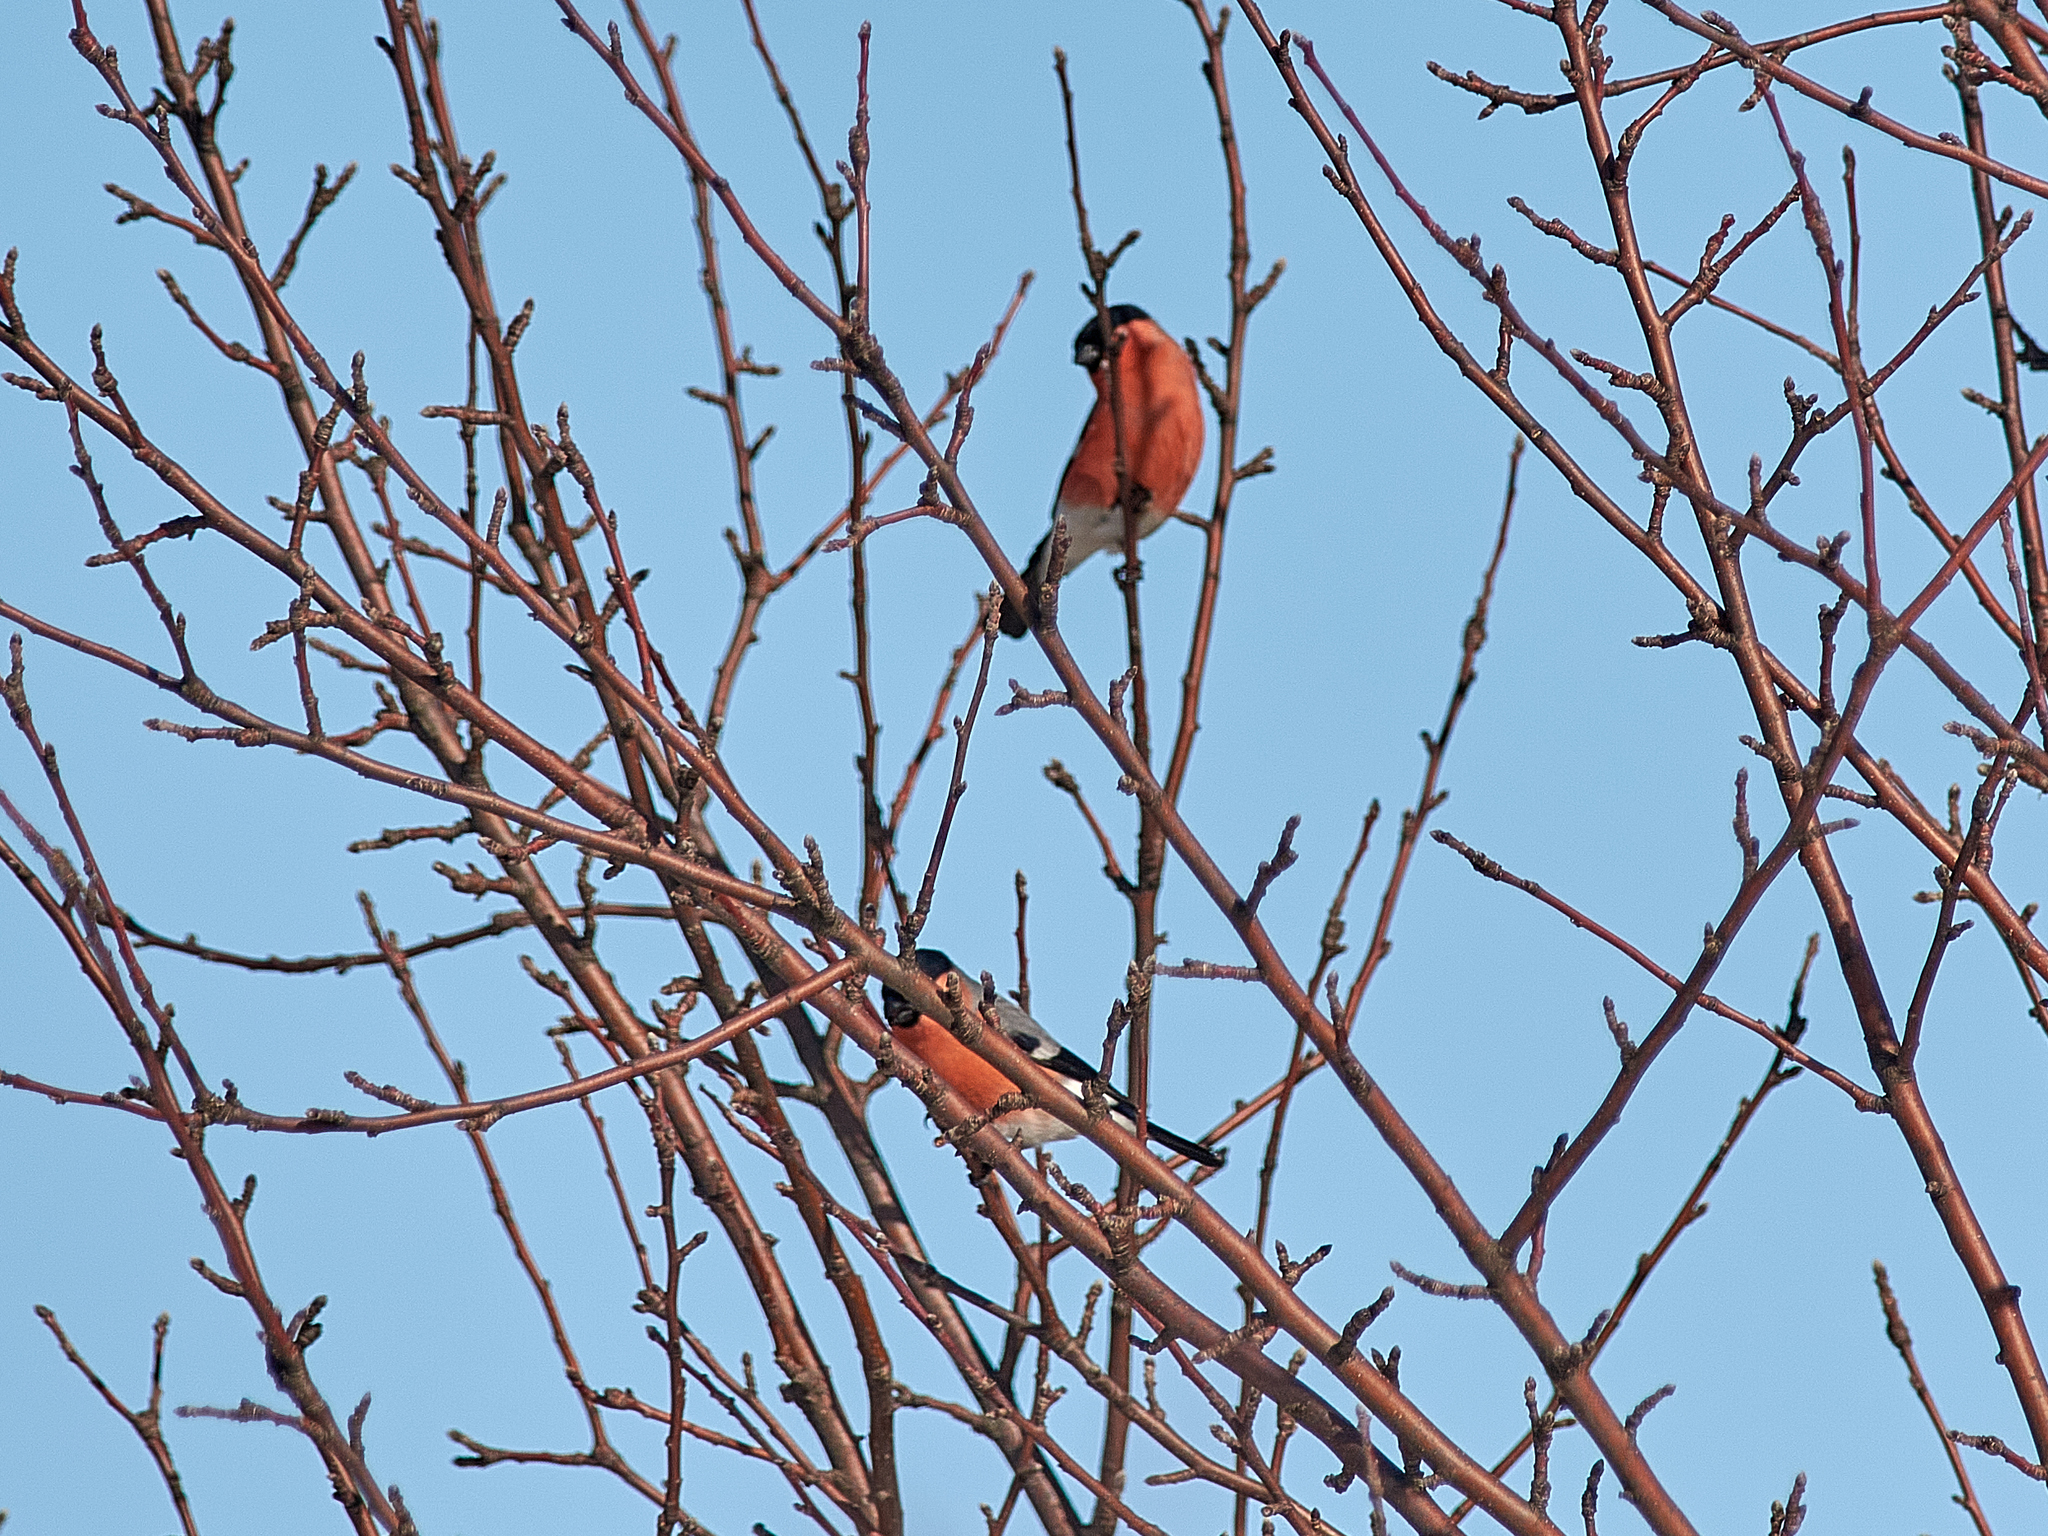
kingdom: Animalia
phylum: Chordata
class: Aves
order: Passeriformes
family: Fringillidae
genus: Pyrrhula
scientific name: Pyrrhula pyrrhula
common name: Eurasian bullfinch
